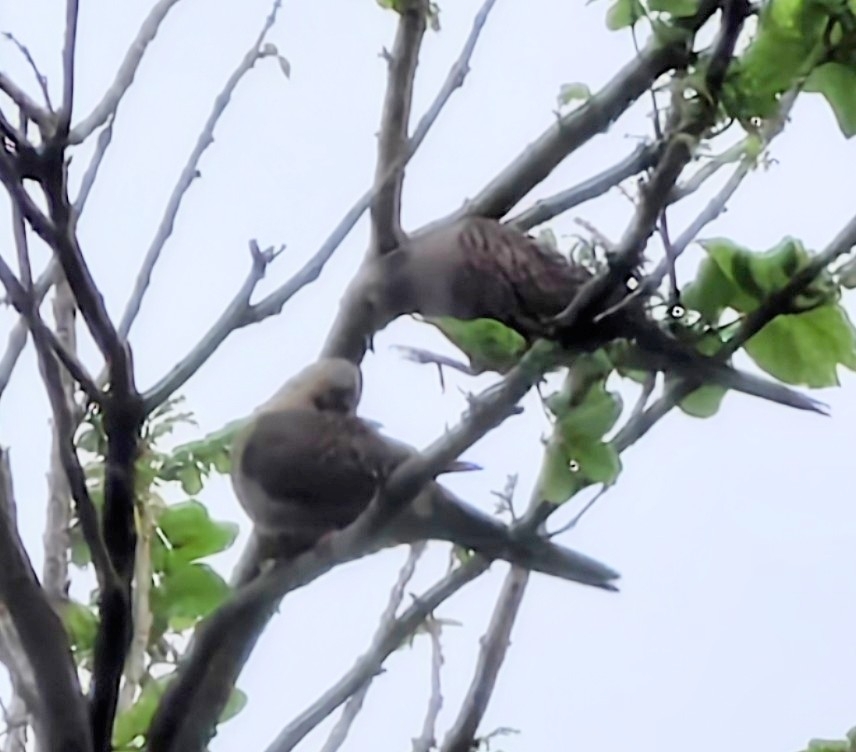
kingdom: Animalia
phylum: Chordata
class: Aves
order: Columbiformes
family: Columbidae
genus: Spilopelia
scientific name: Spilopelia chinensis
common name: Spotted dove
